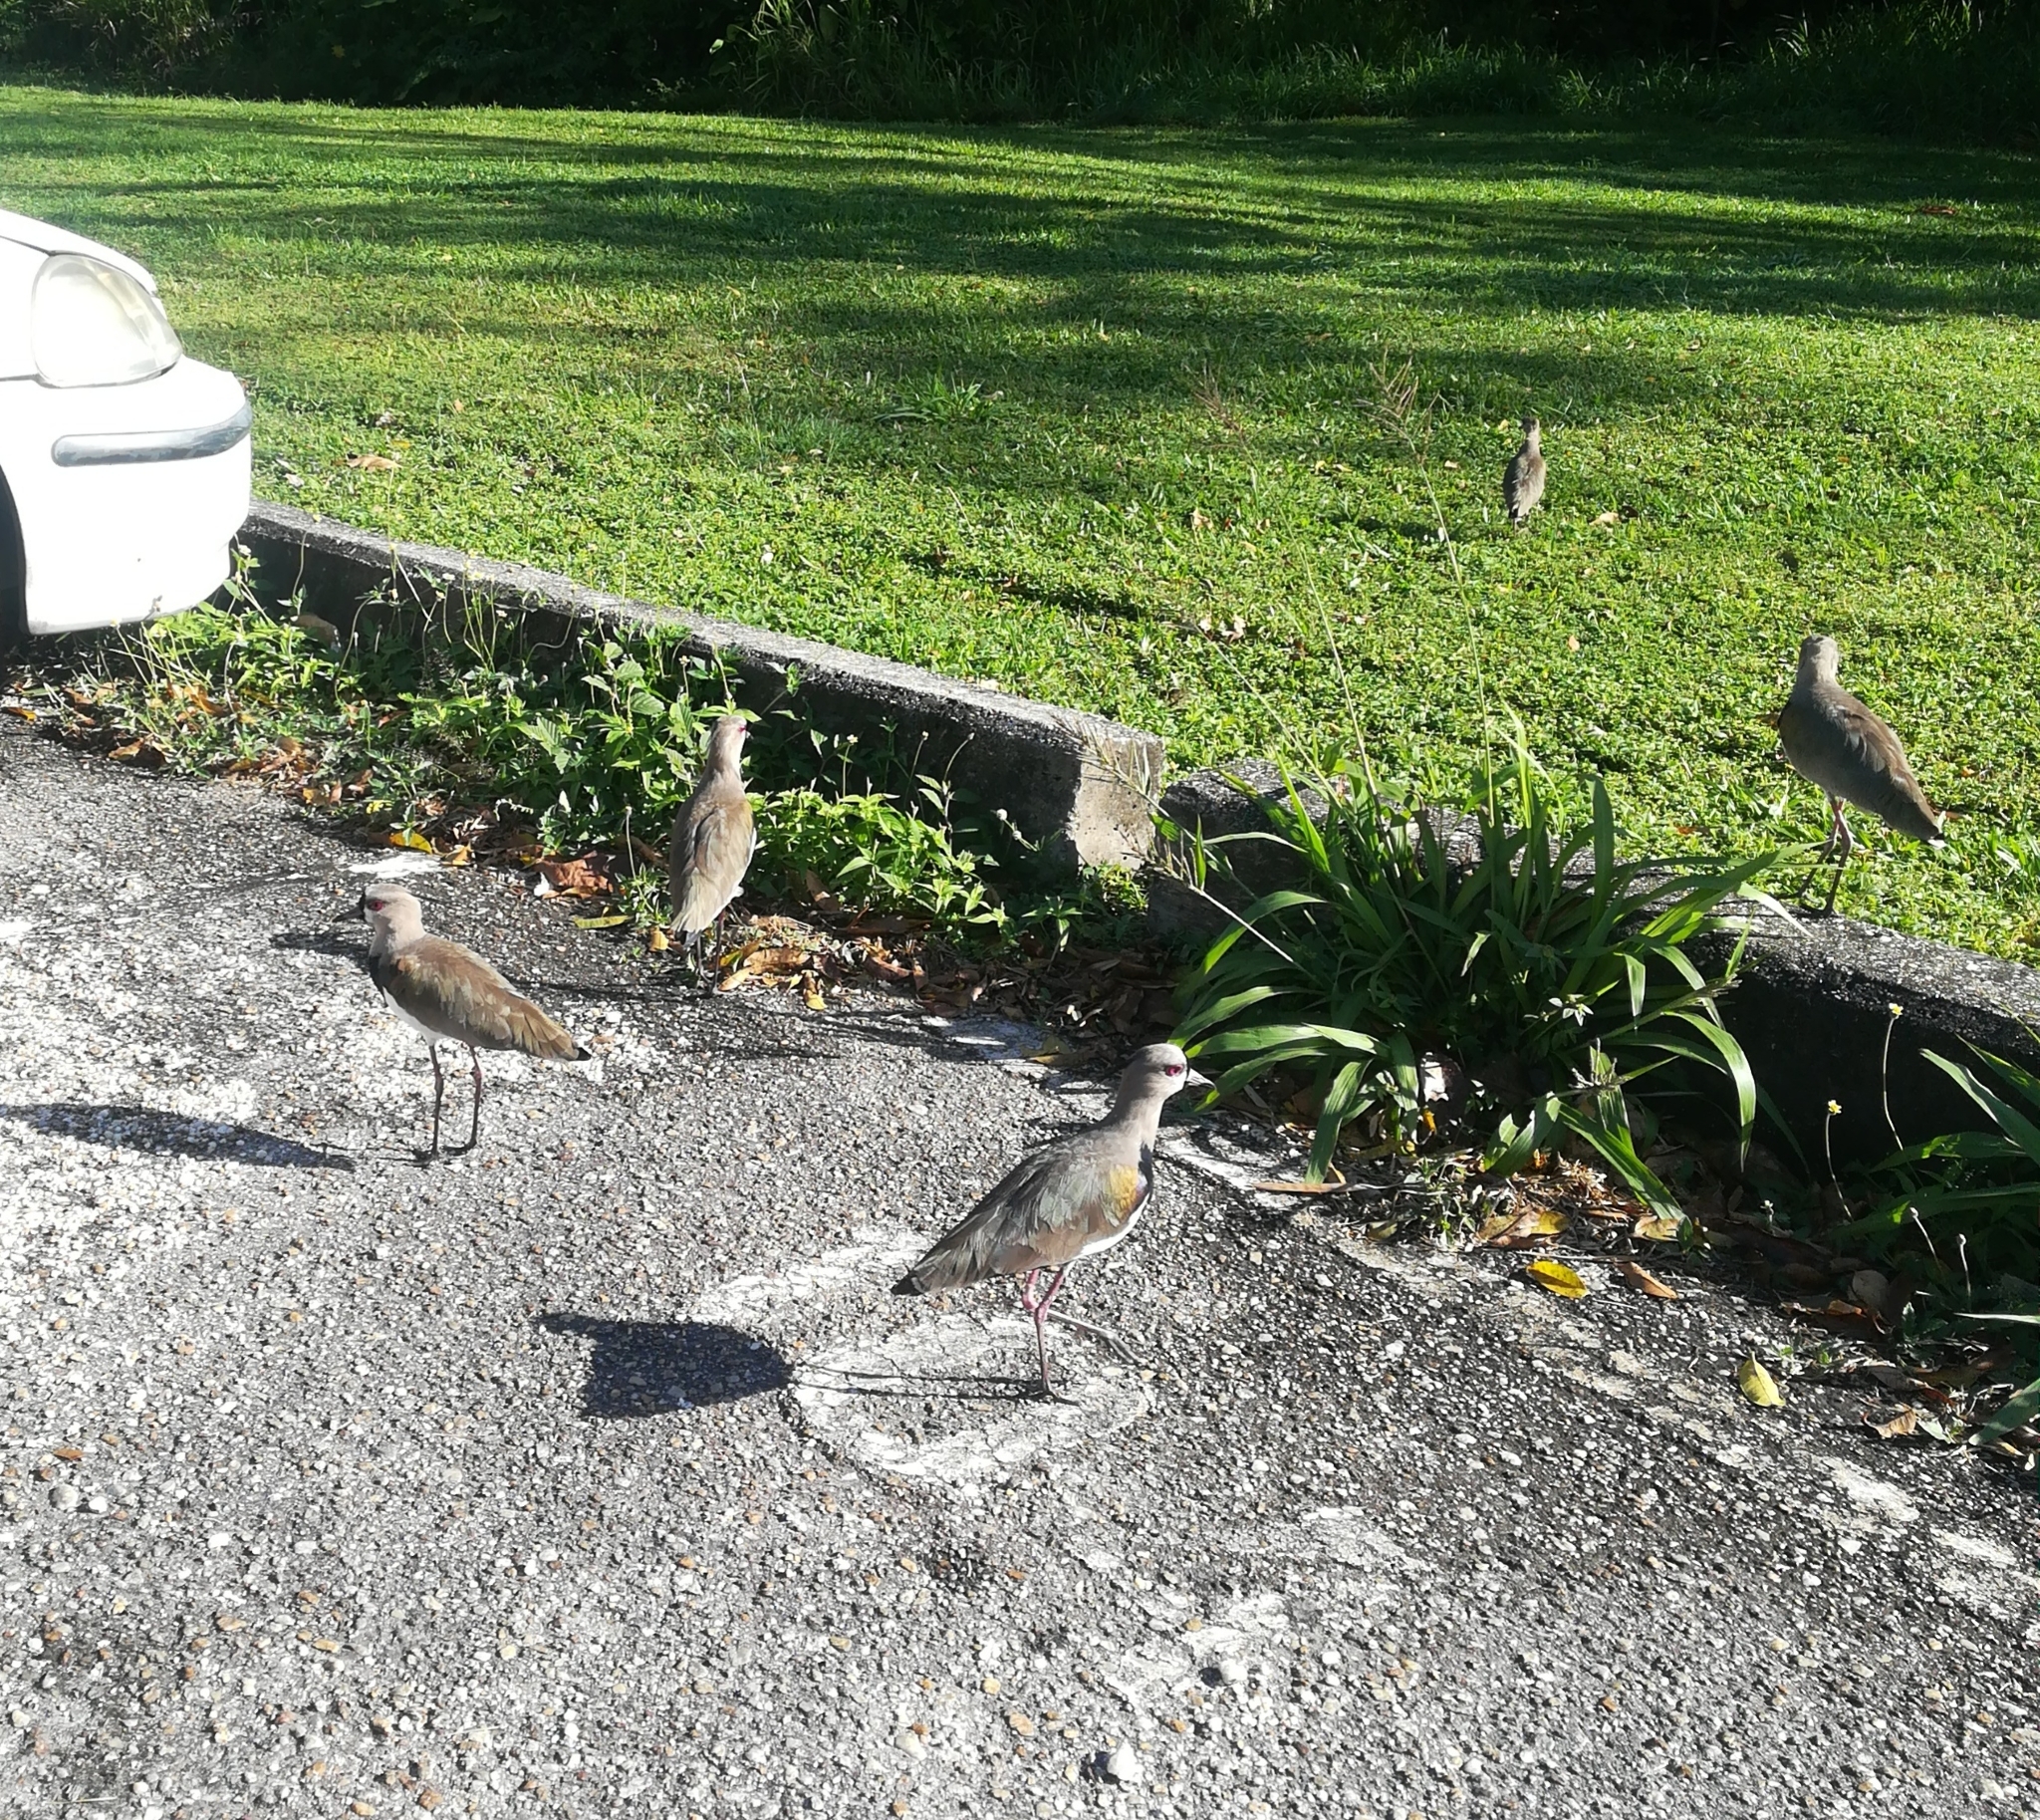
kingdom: Animalia
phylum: Chordata
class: Aves
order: Charadriiformes
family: Charadriidae
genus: Vanellus
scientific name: Vanellus chilensis
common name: Southern lapwing
